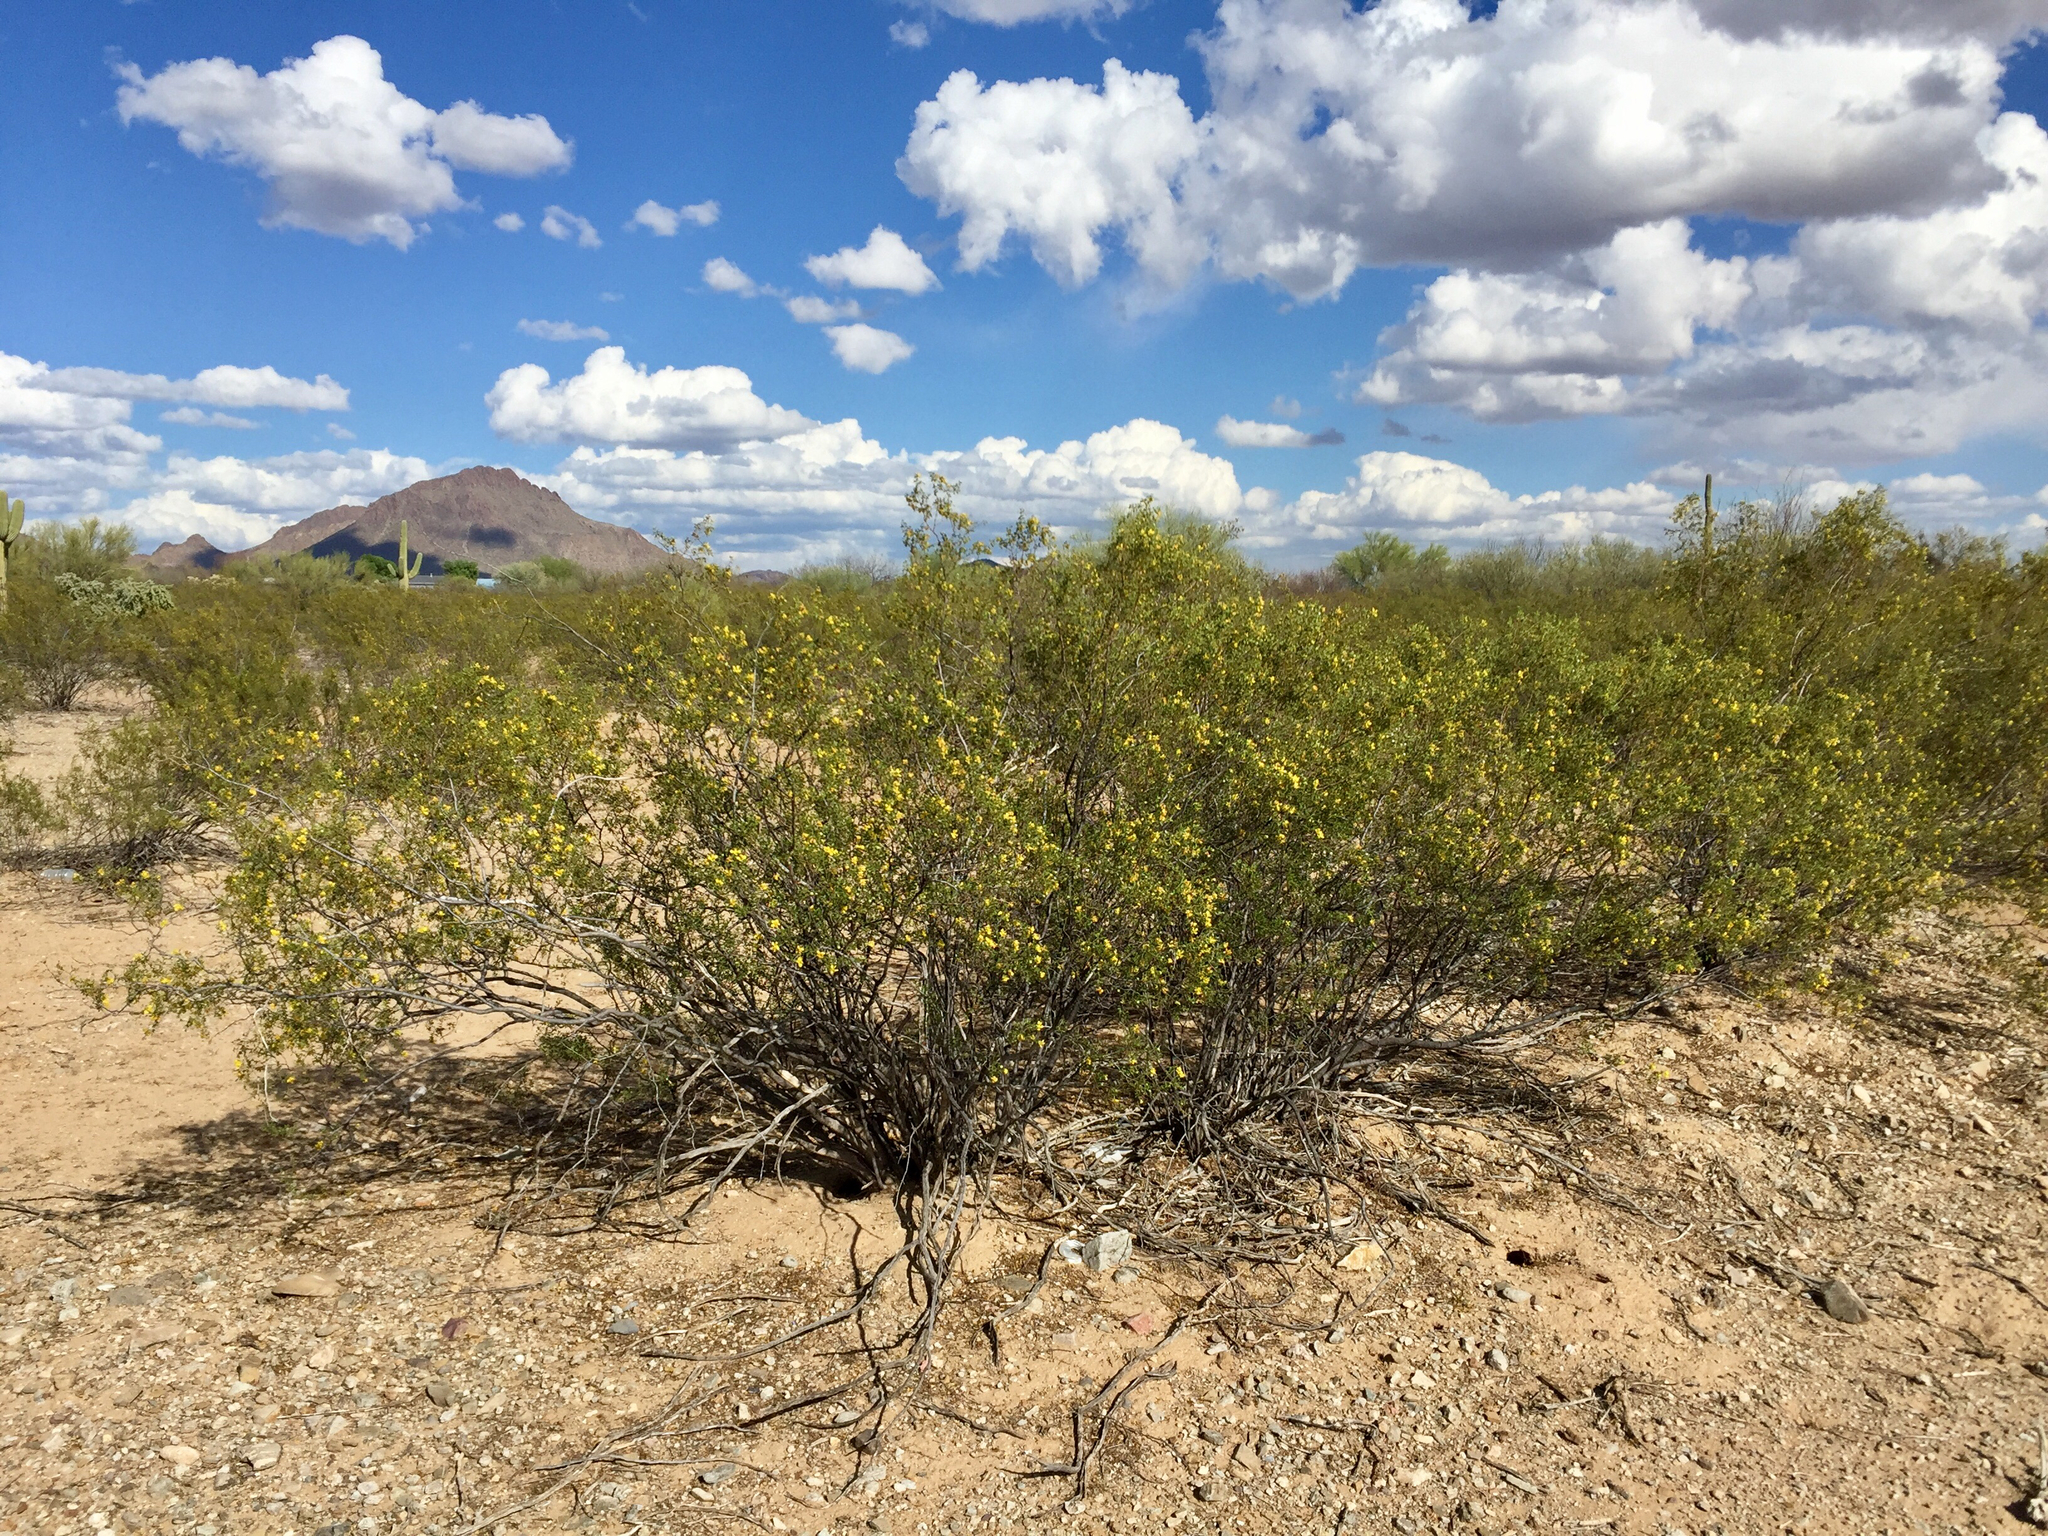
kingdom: Plantae
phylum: Tracheophyta
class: Magnoliopsida
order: Zygophyllales
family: Zygophyllaceae
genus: Larrea
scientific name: Larrea tridentata
